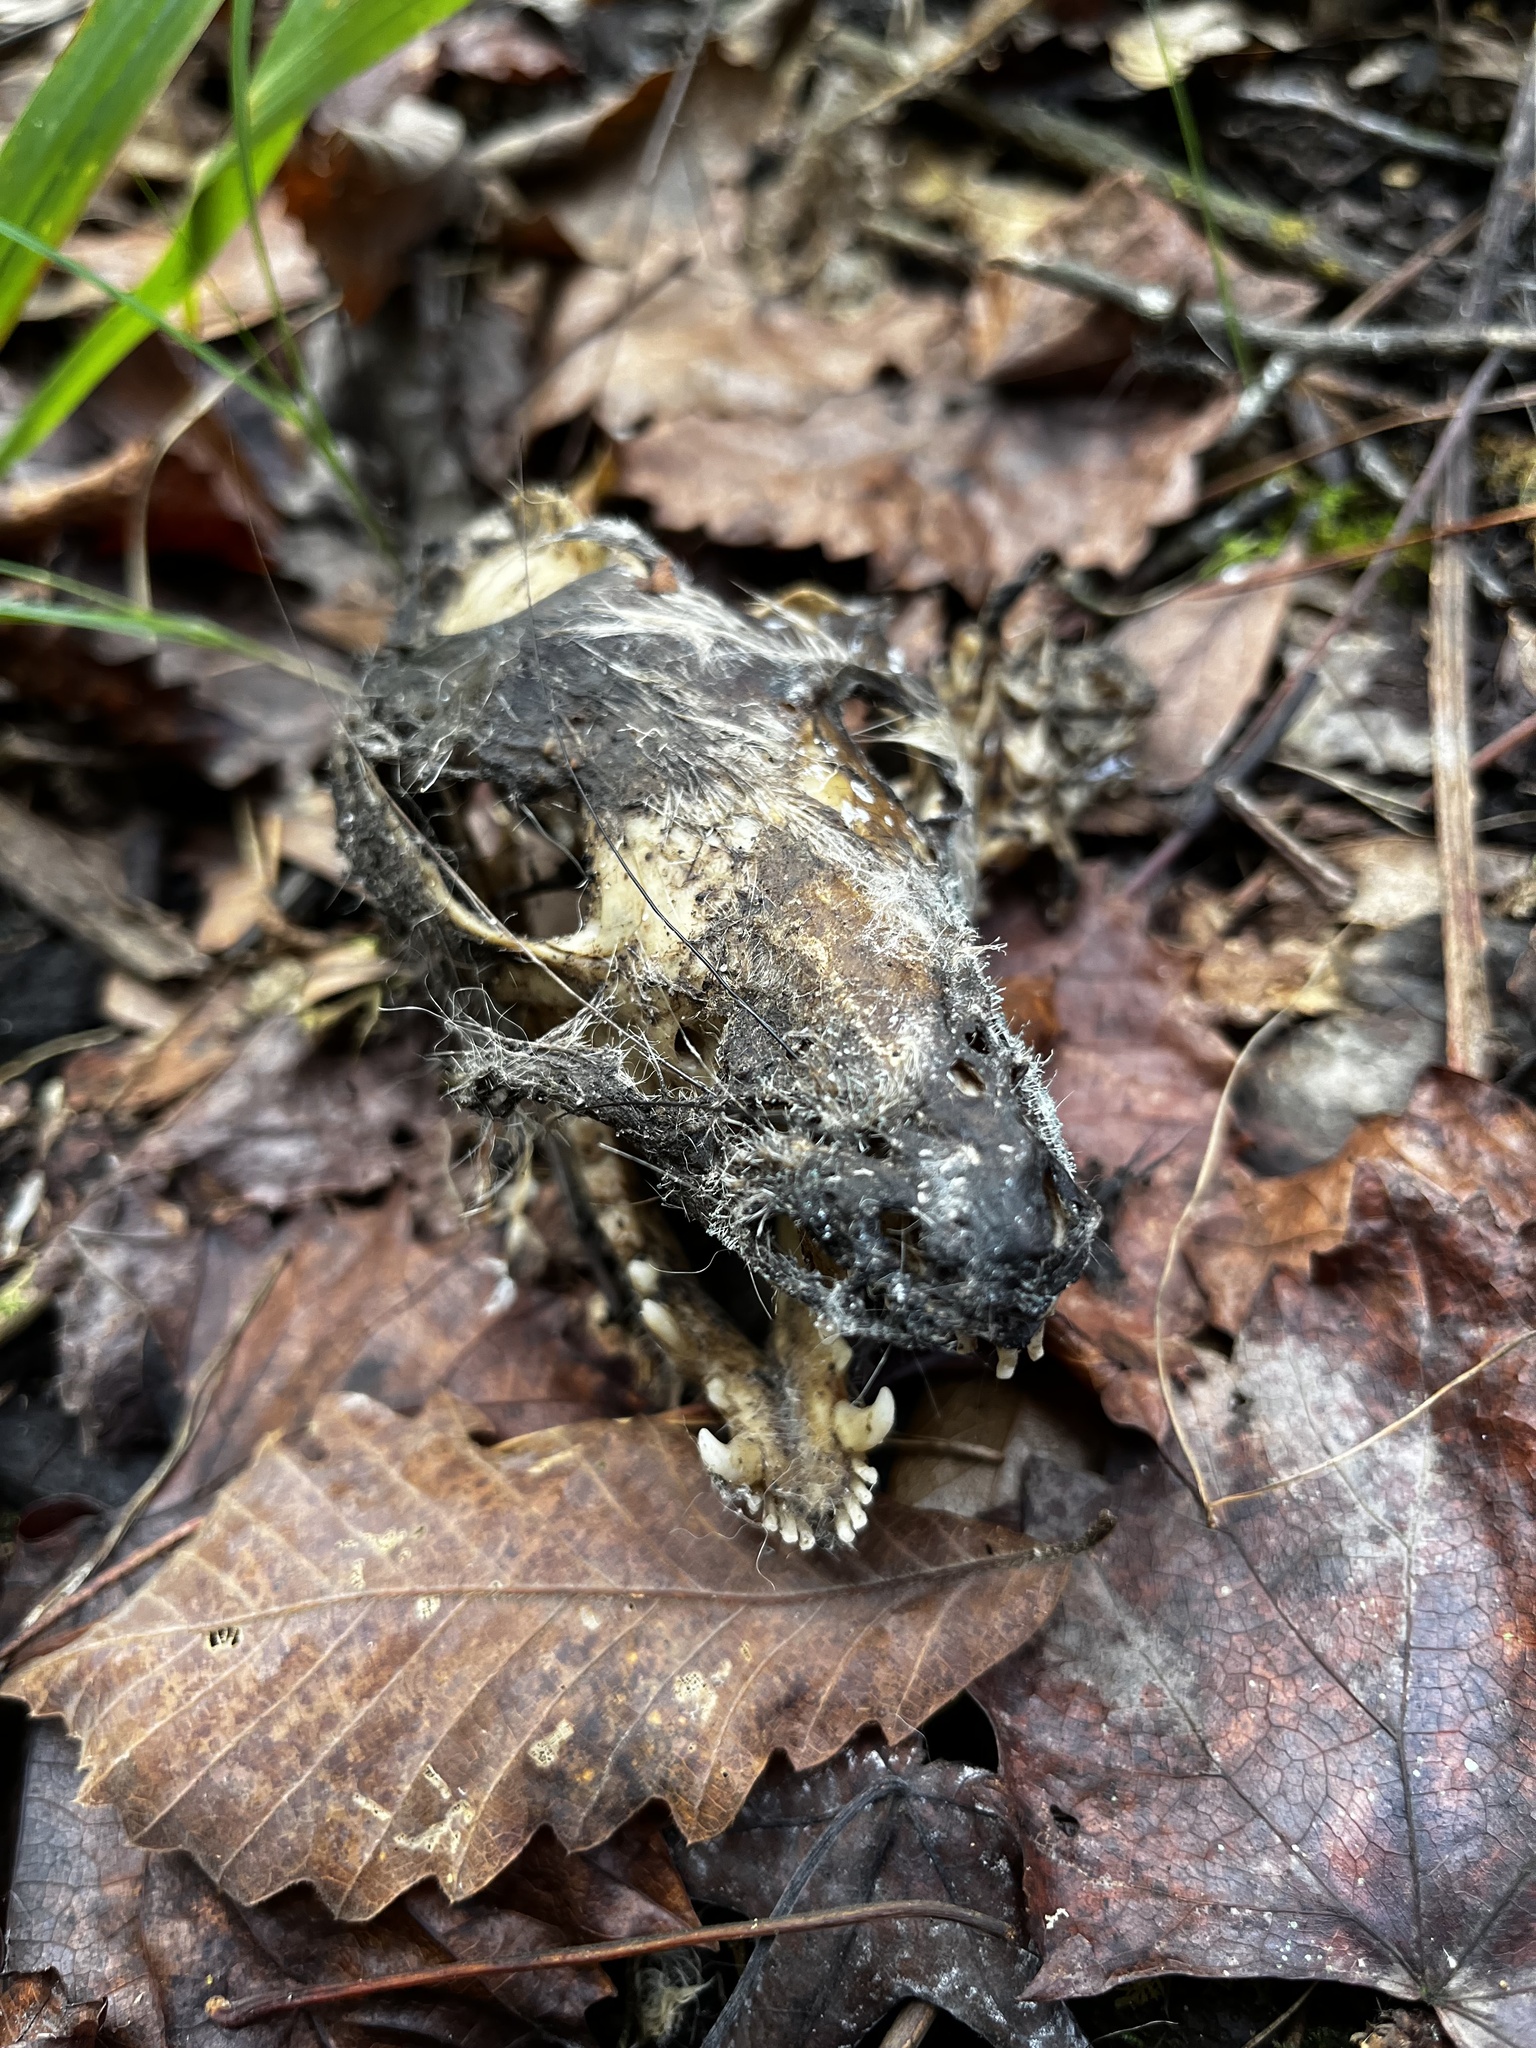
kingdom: Animalia
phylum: Chordata
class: Mammalia
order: Didelphimorphia
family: Didelphidae
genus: Didelphis
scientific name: Didelphis virginiana
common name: Virginia opossum
